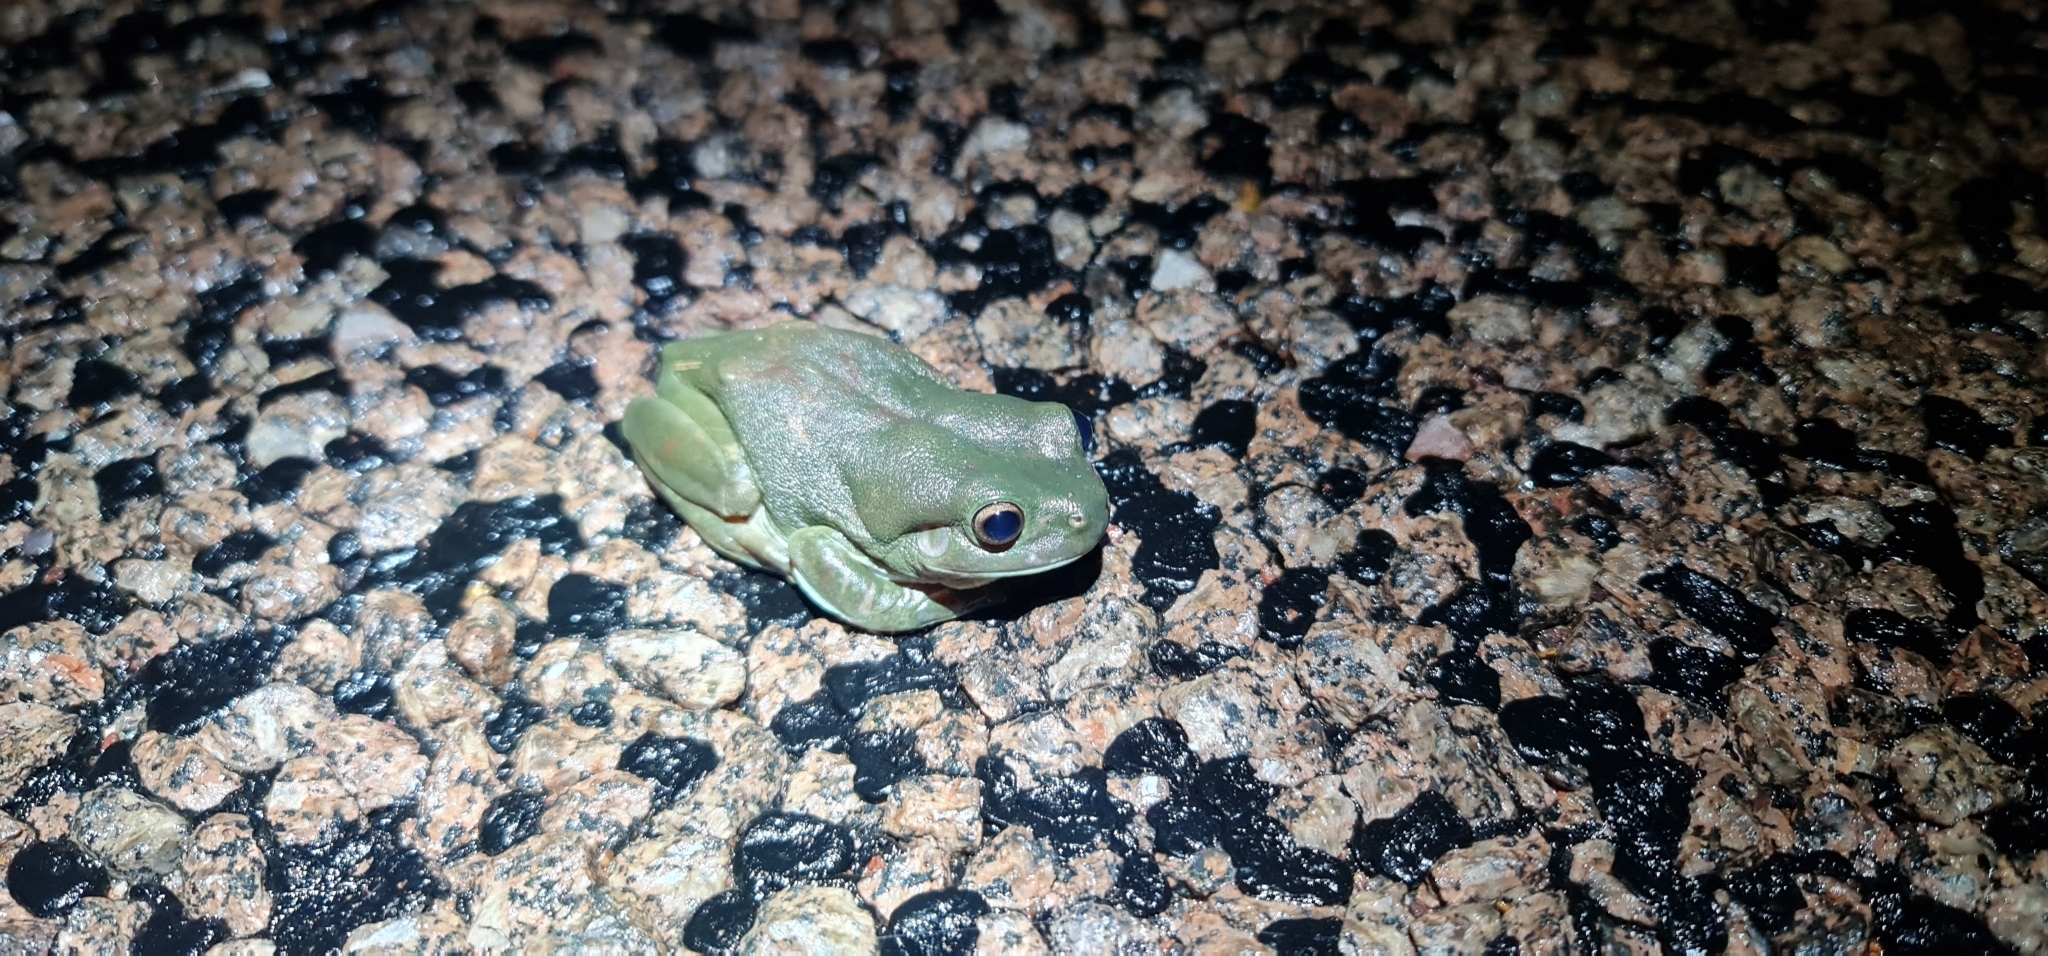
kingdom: Animalia
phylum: Chordata
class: Amphibia
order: Anura
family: Pelodryadidae
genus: Ranoidea
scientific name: Ranoidea caerulea
